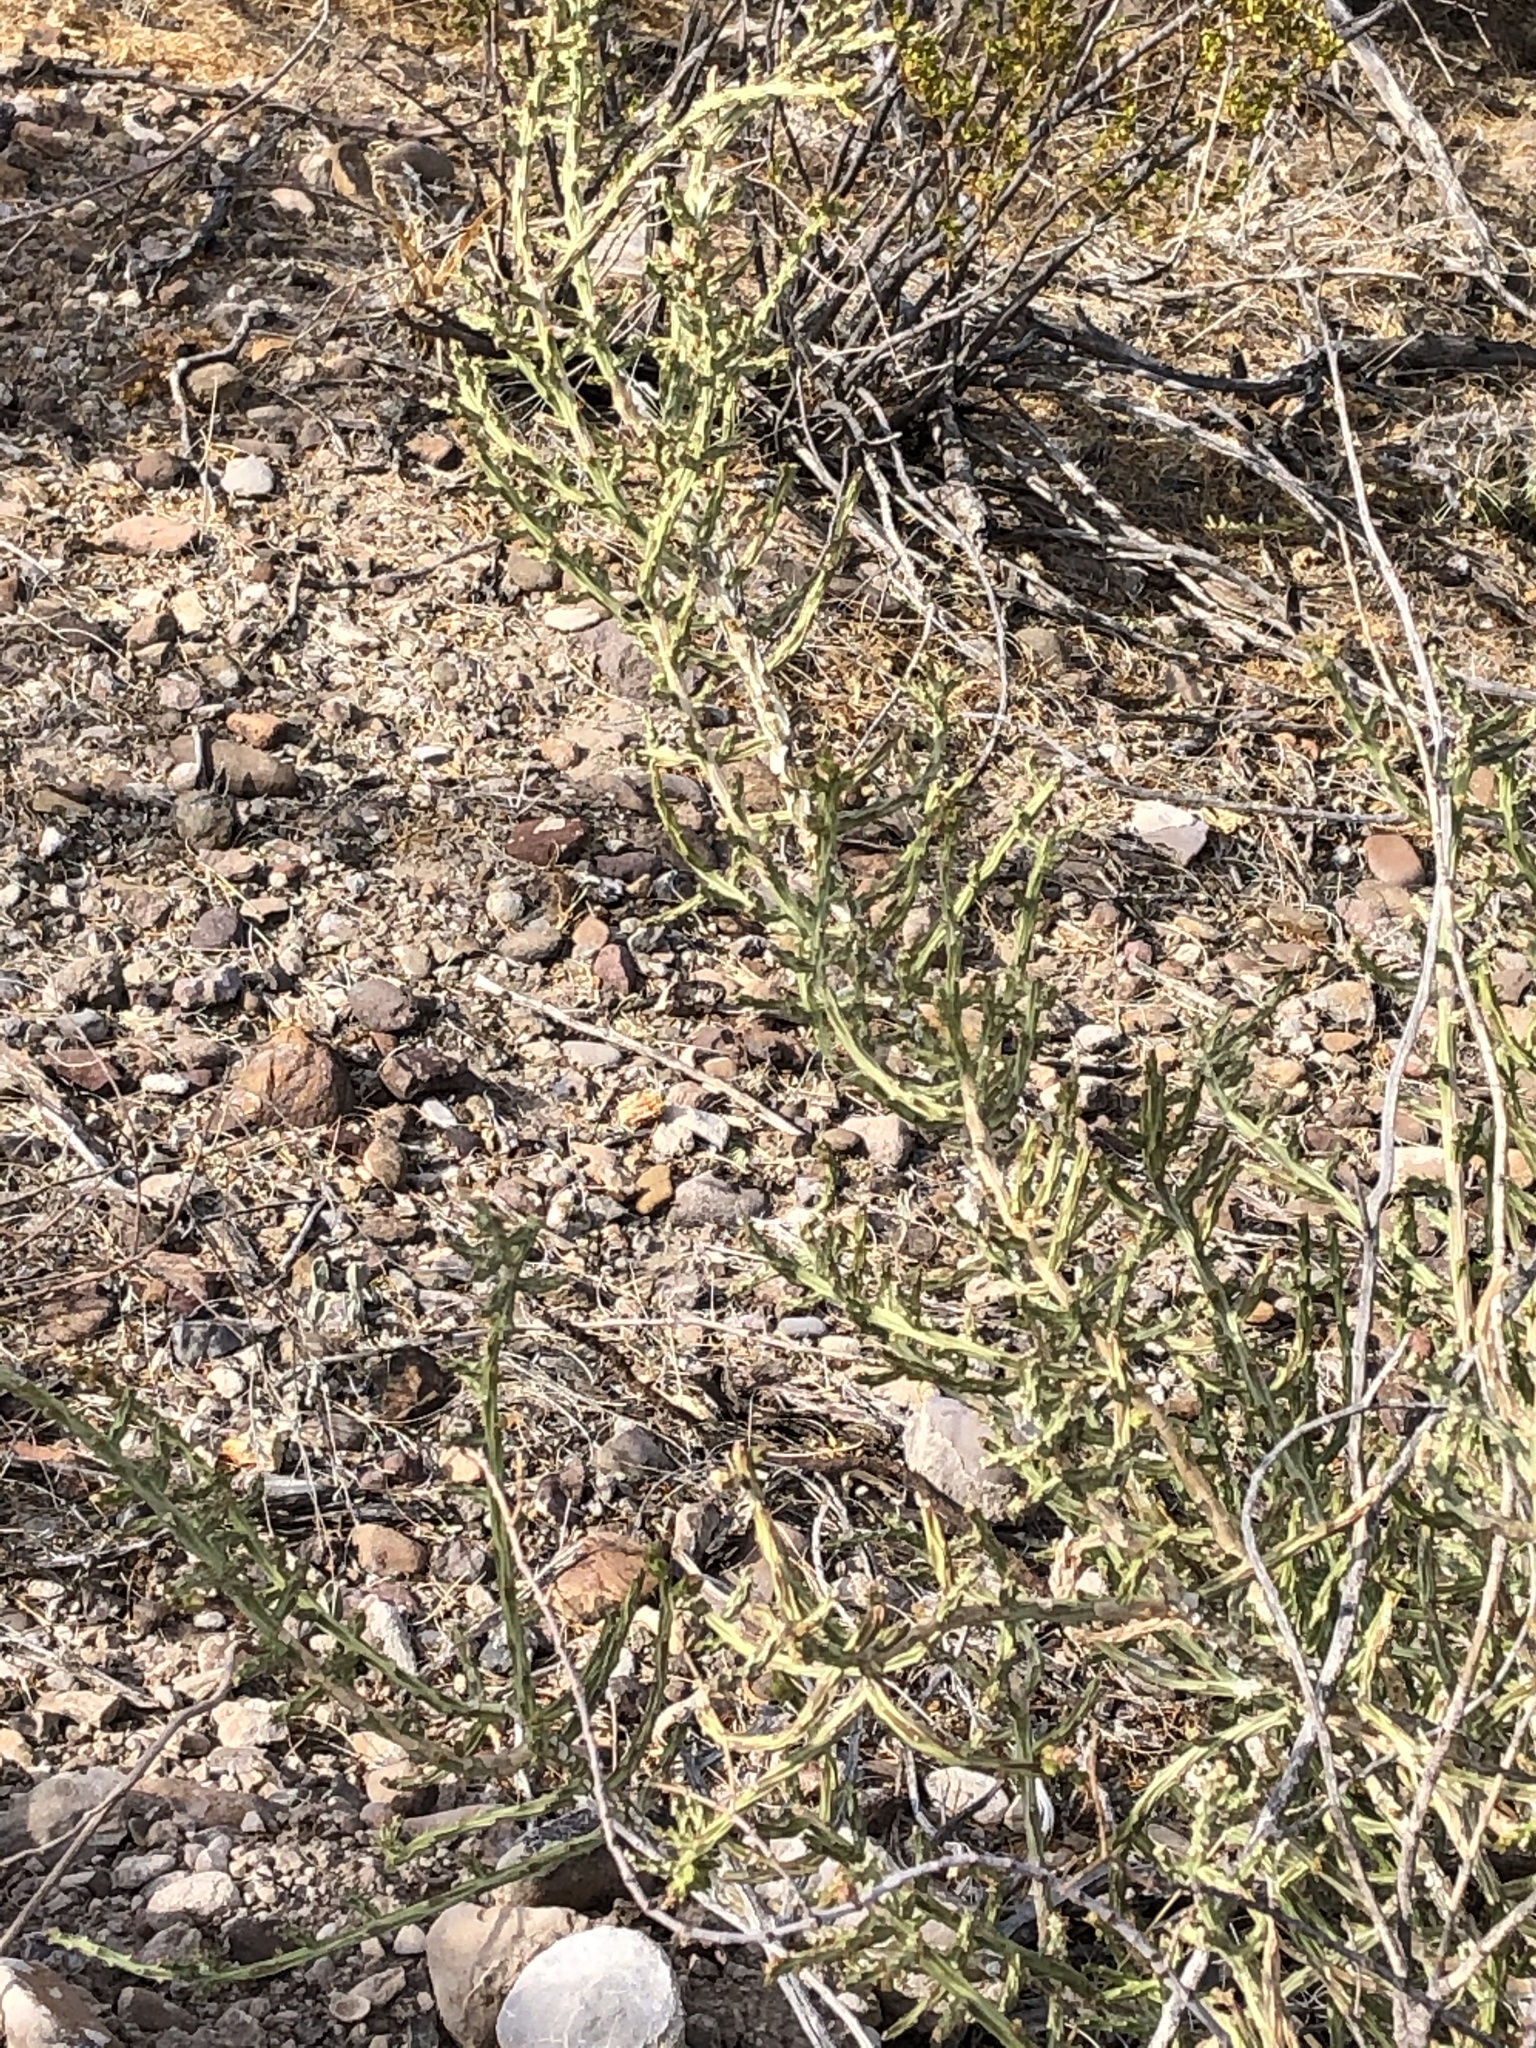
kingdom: Plantae
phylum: Tracheophyta
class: Magnoliopsida
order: Caryophyllales
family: Cactaceae
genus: Cylindropuntia
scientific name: Cylindropuntia leptocaulis
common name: Christmas cactus
